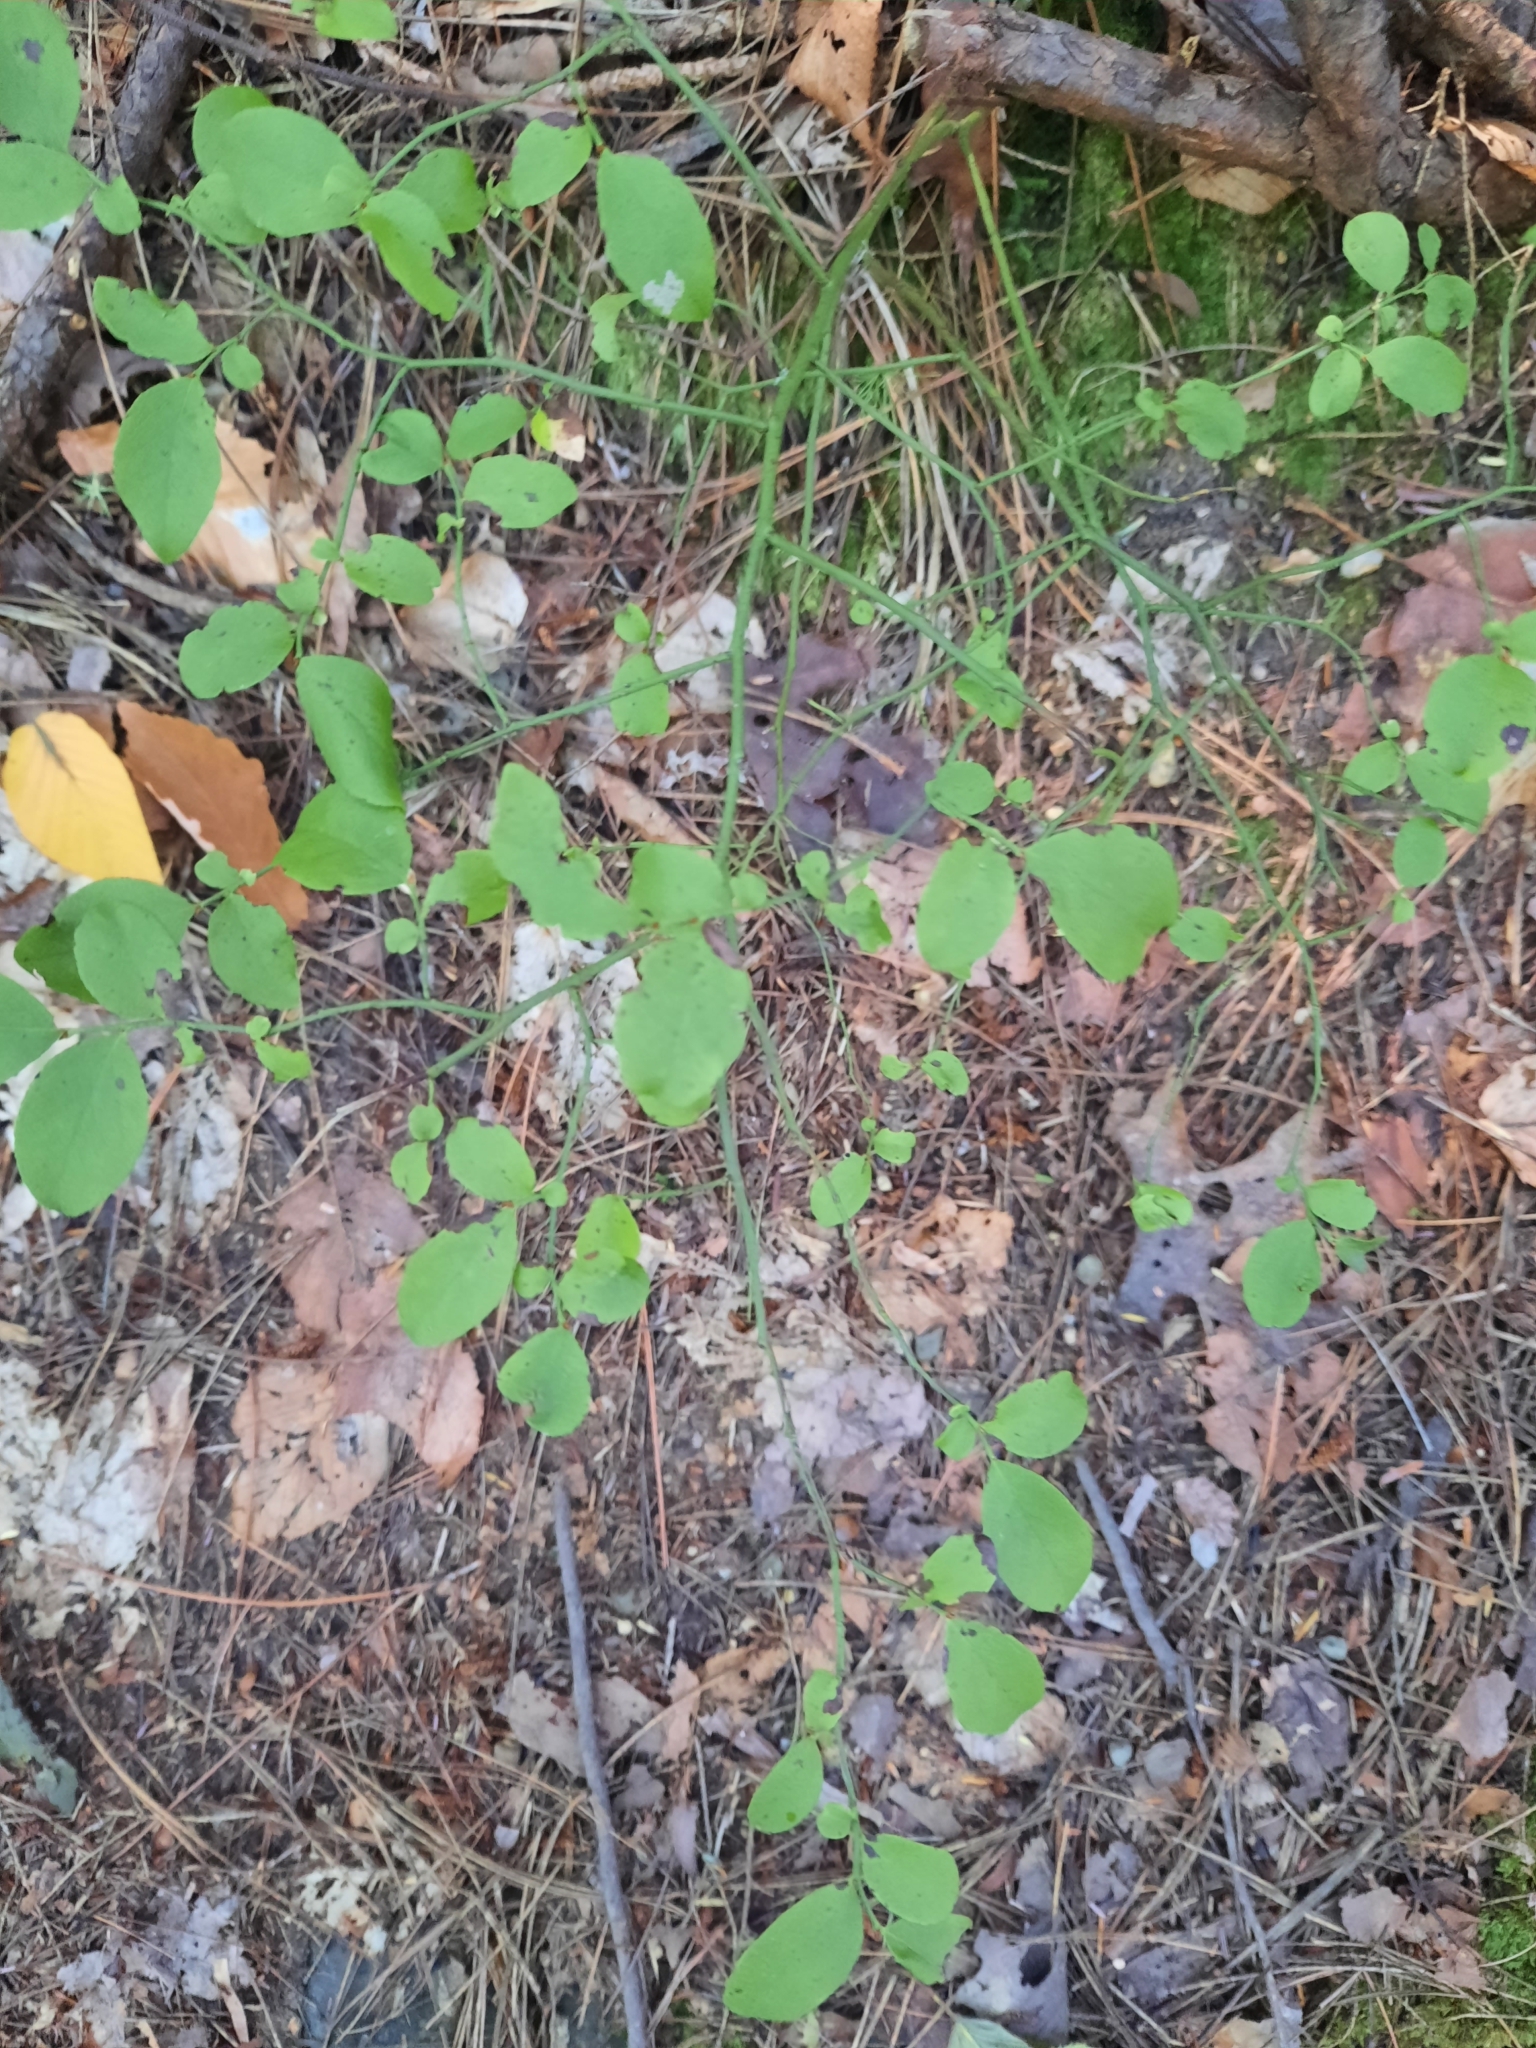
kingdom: Plantae
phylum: Tracheophyta
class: Magnoliopsida
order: Ericales
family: Ericaceae
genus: Vaccinium
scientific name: Vaccinium pallidum
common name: Blue ridge blueberry
